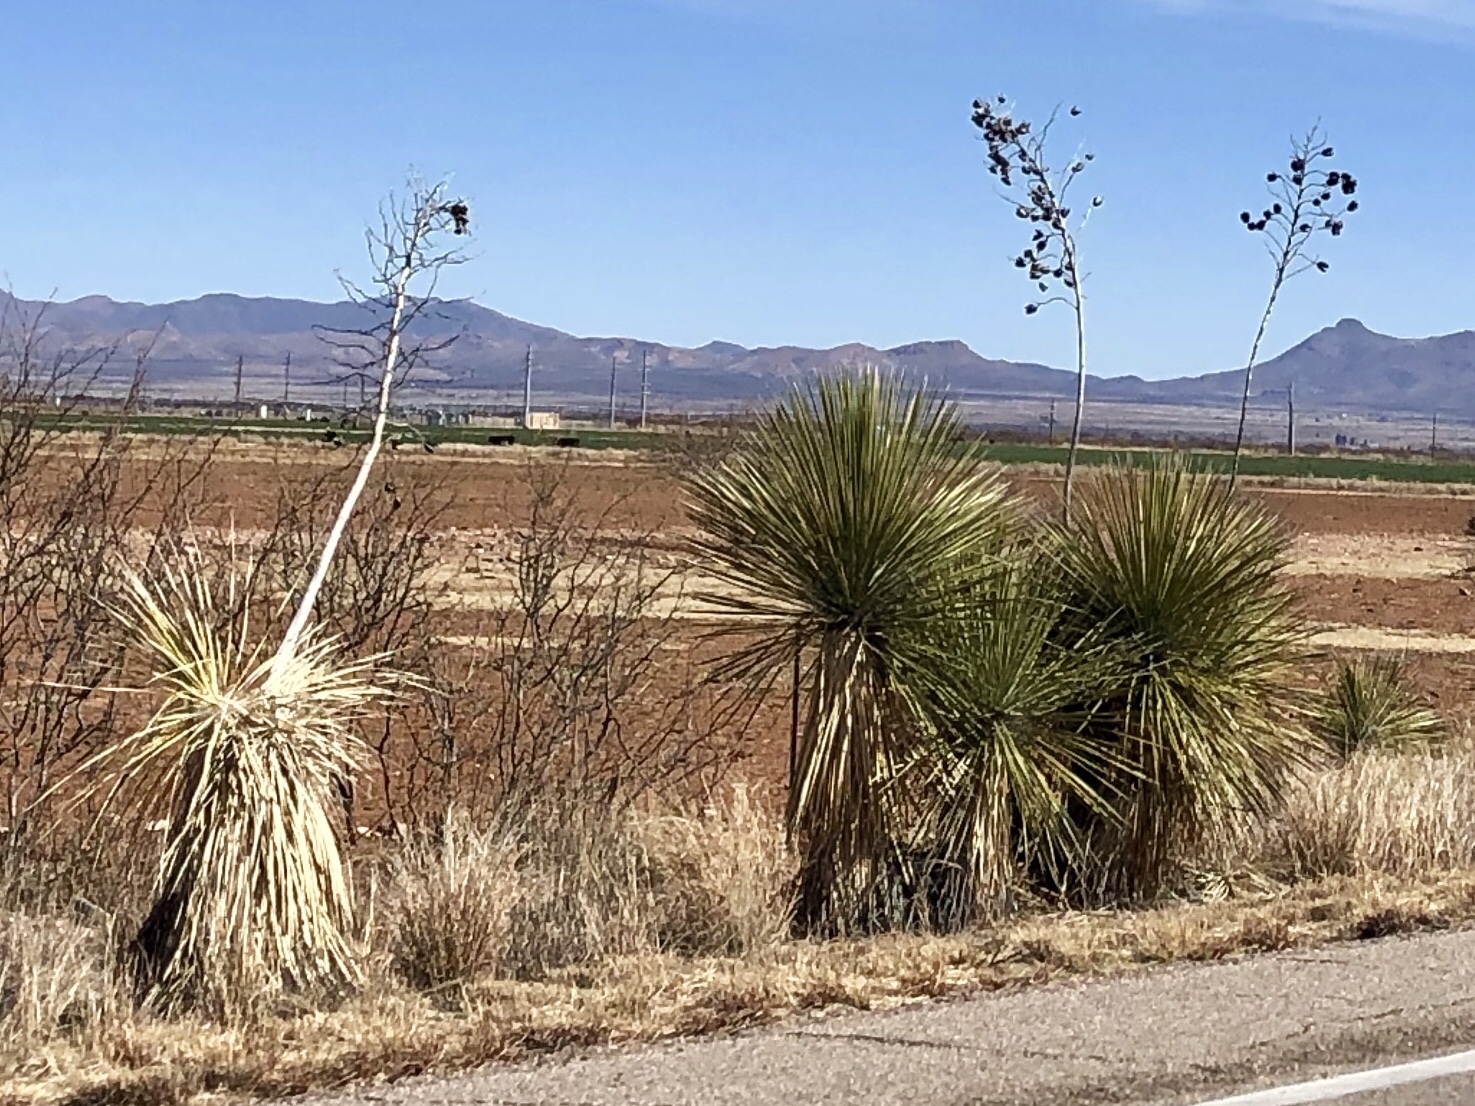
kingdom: Plantae
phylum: Tracheophyta
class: Liliopsida
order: Asparagales
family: Asparagaceae
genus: Yucca
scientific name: Yucca elata
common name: Palmella
